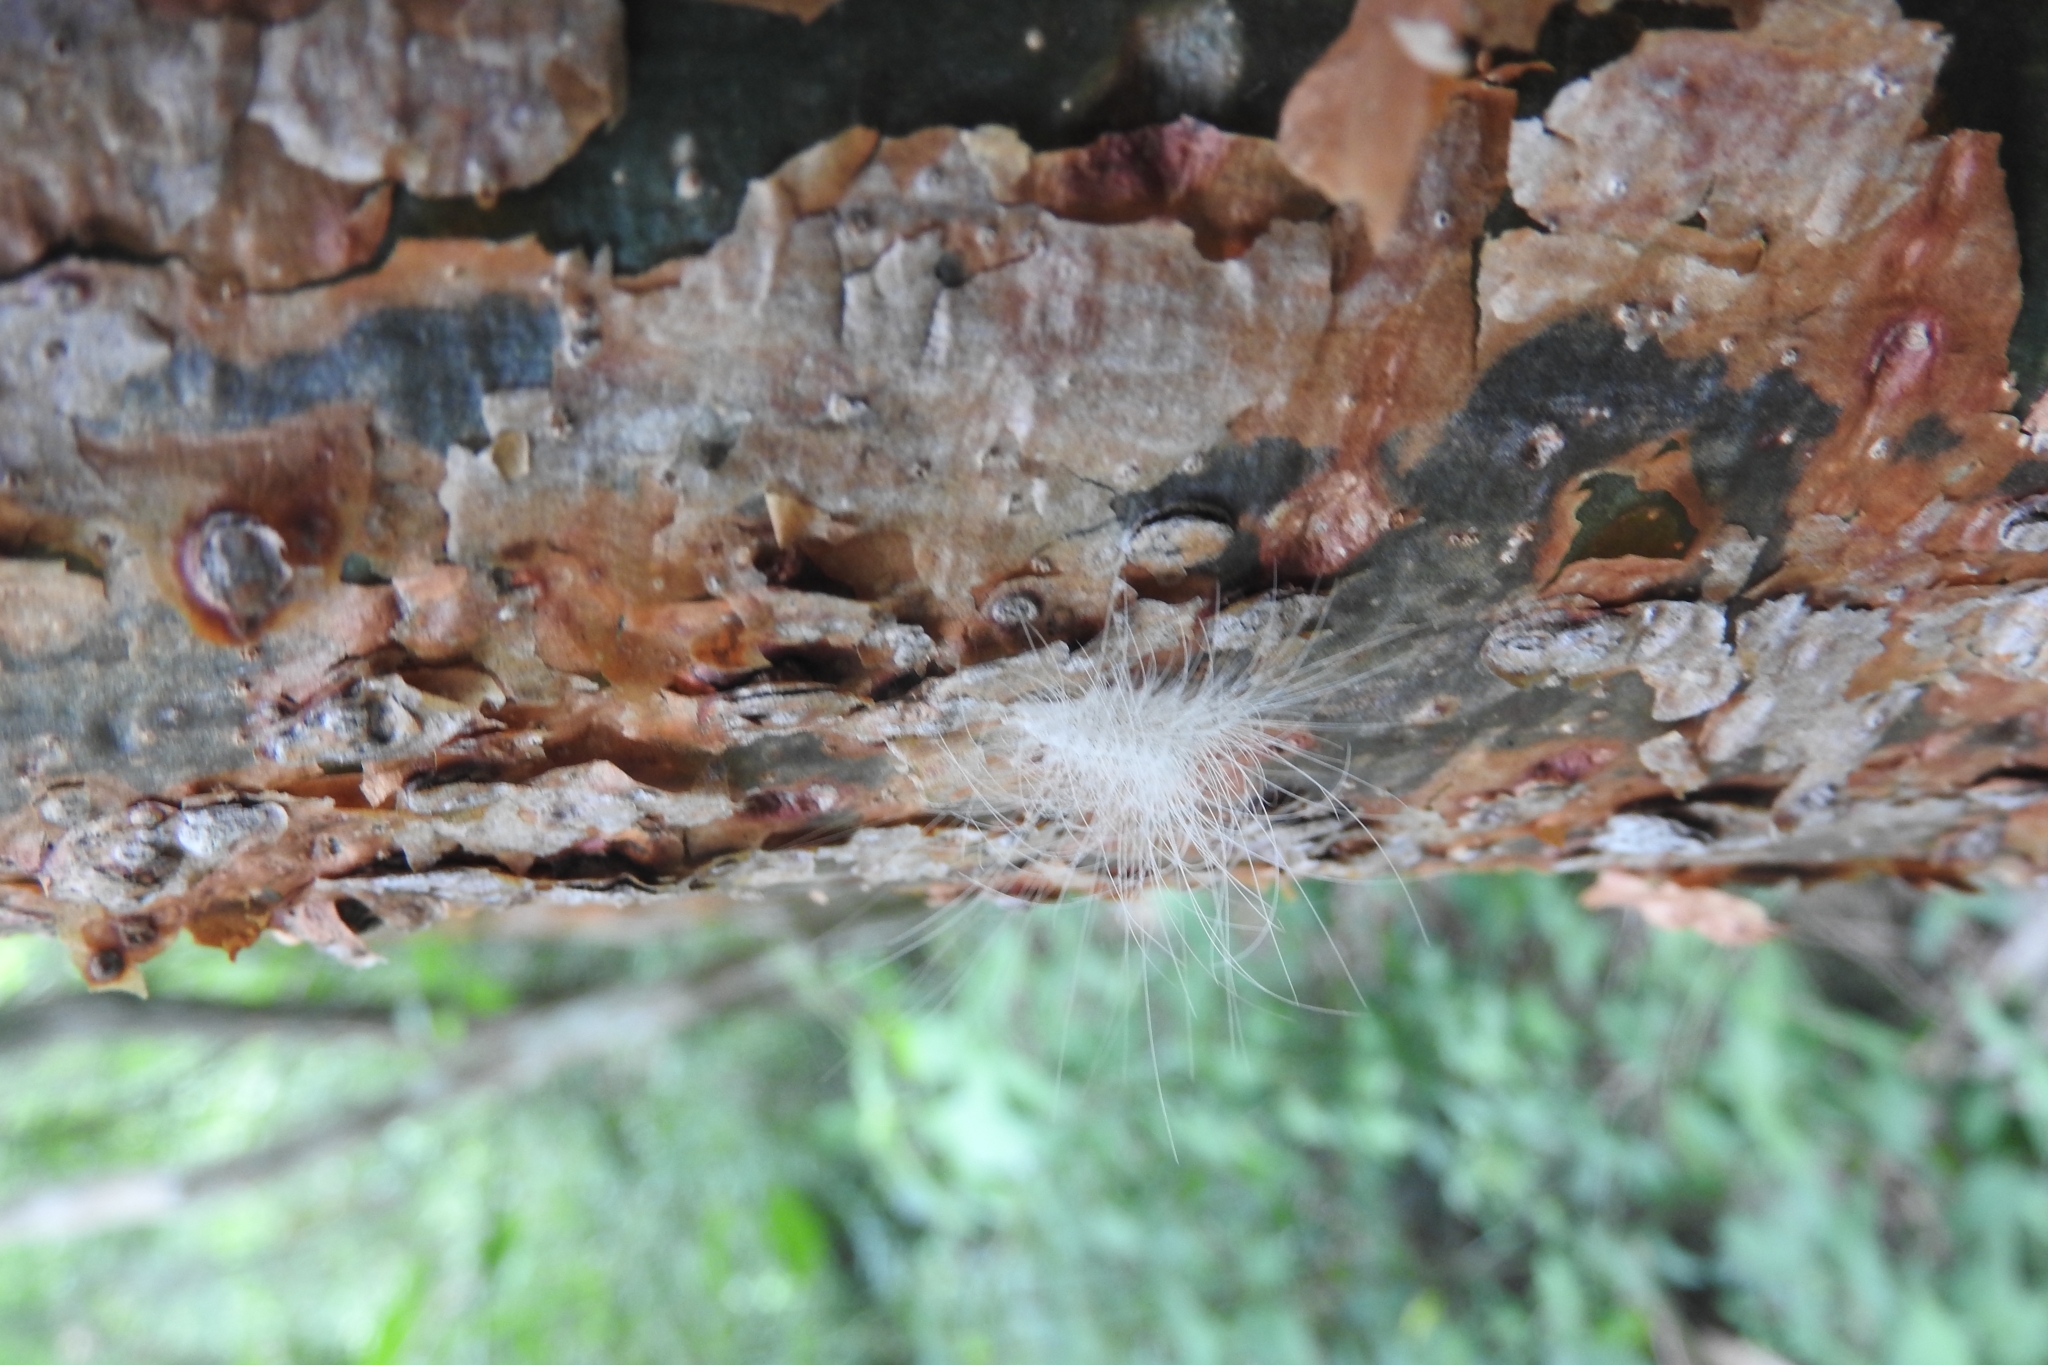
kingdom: Animalia
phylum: Arthropoda
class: Insecta
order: Lepidoptera
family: Erebidae
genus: Eudesmia
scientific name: Eudesmia menea
